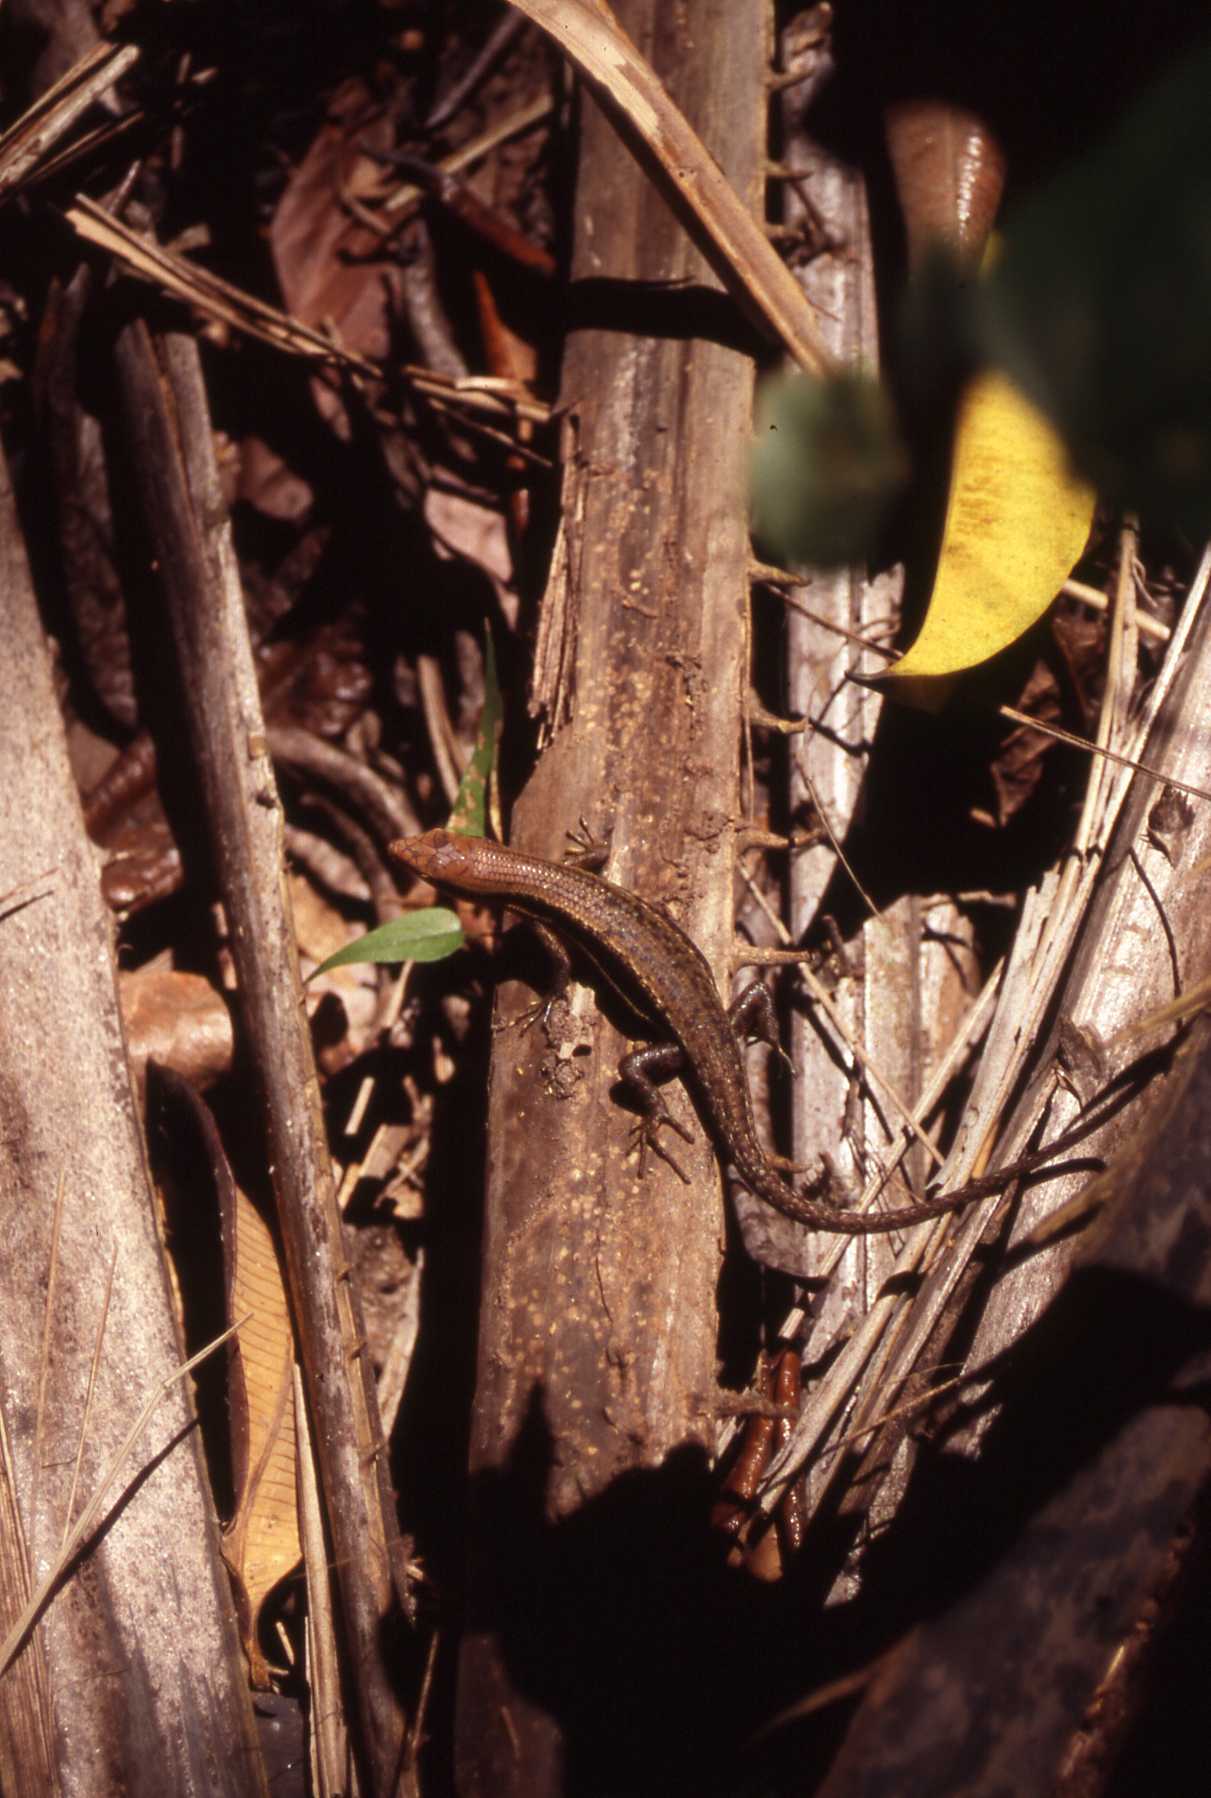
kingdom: Animalia
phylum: Chordata
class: Squamata
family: Scincidae
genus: Trachylepis
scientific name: Trachylepis affinis
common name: Senegal mabuya
